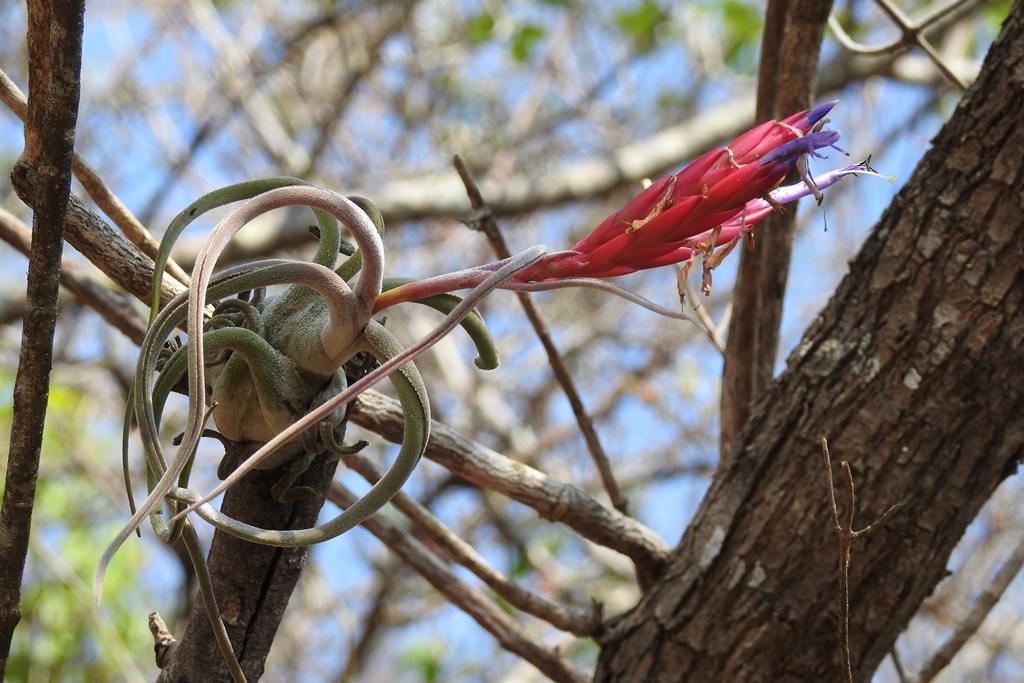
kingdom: Plantae
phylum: Tracheophyta
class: Liliopsida
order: Poales
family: Bromeliaceae
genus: Tillandsia
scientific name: Tillandsia caput-medusae
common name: Octopus plant
